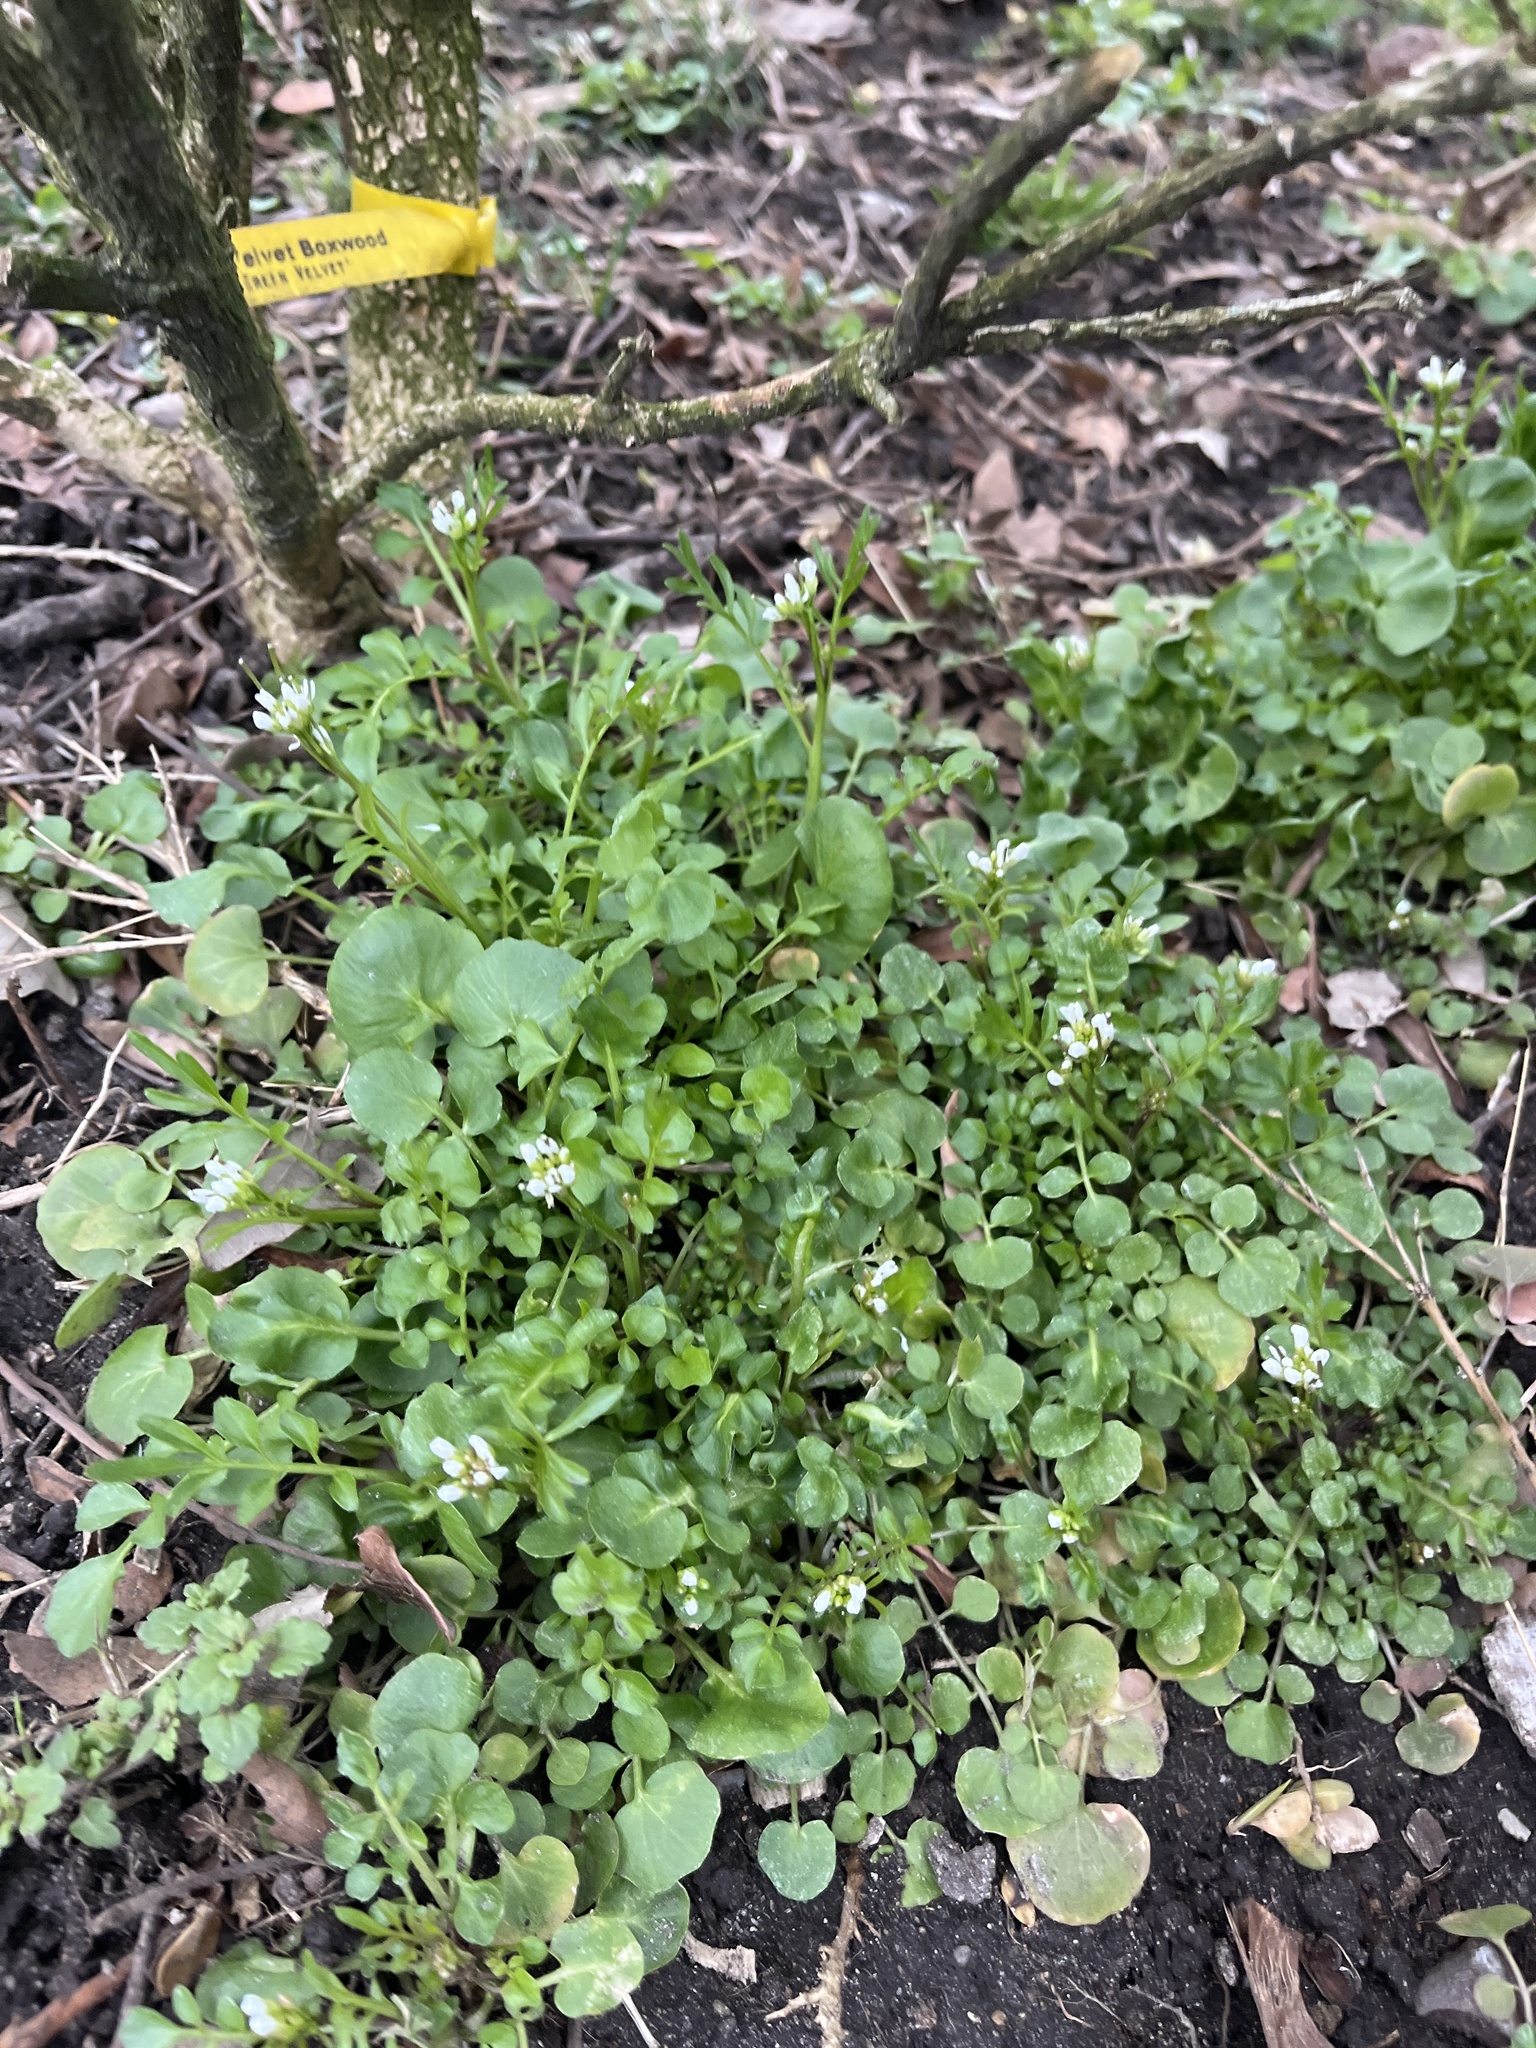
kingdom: Plantae
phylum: Tracheophyta
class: Magnoliopsida
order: Brassicales
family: Brassicaceae
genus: Cardamine
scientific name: Cardamine hirsuta
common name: Hairy bittercress
